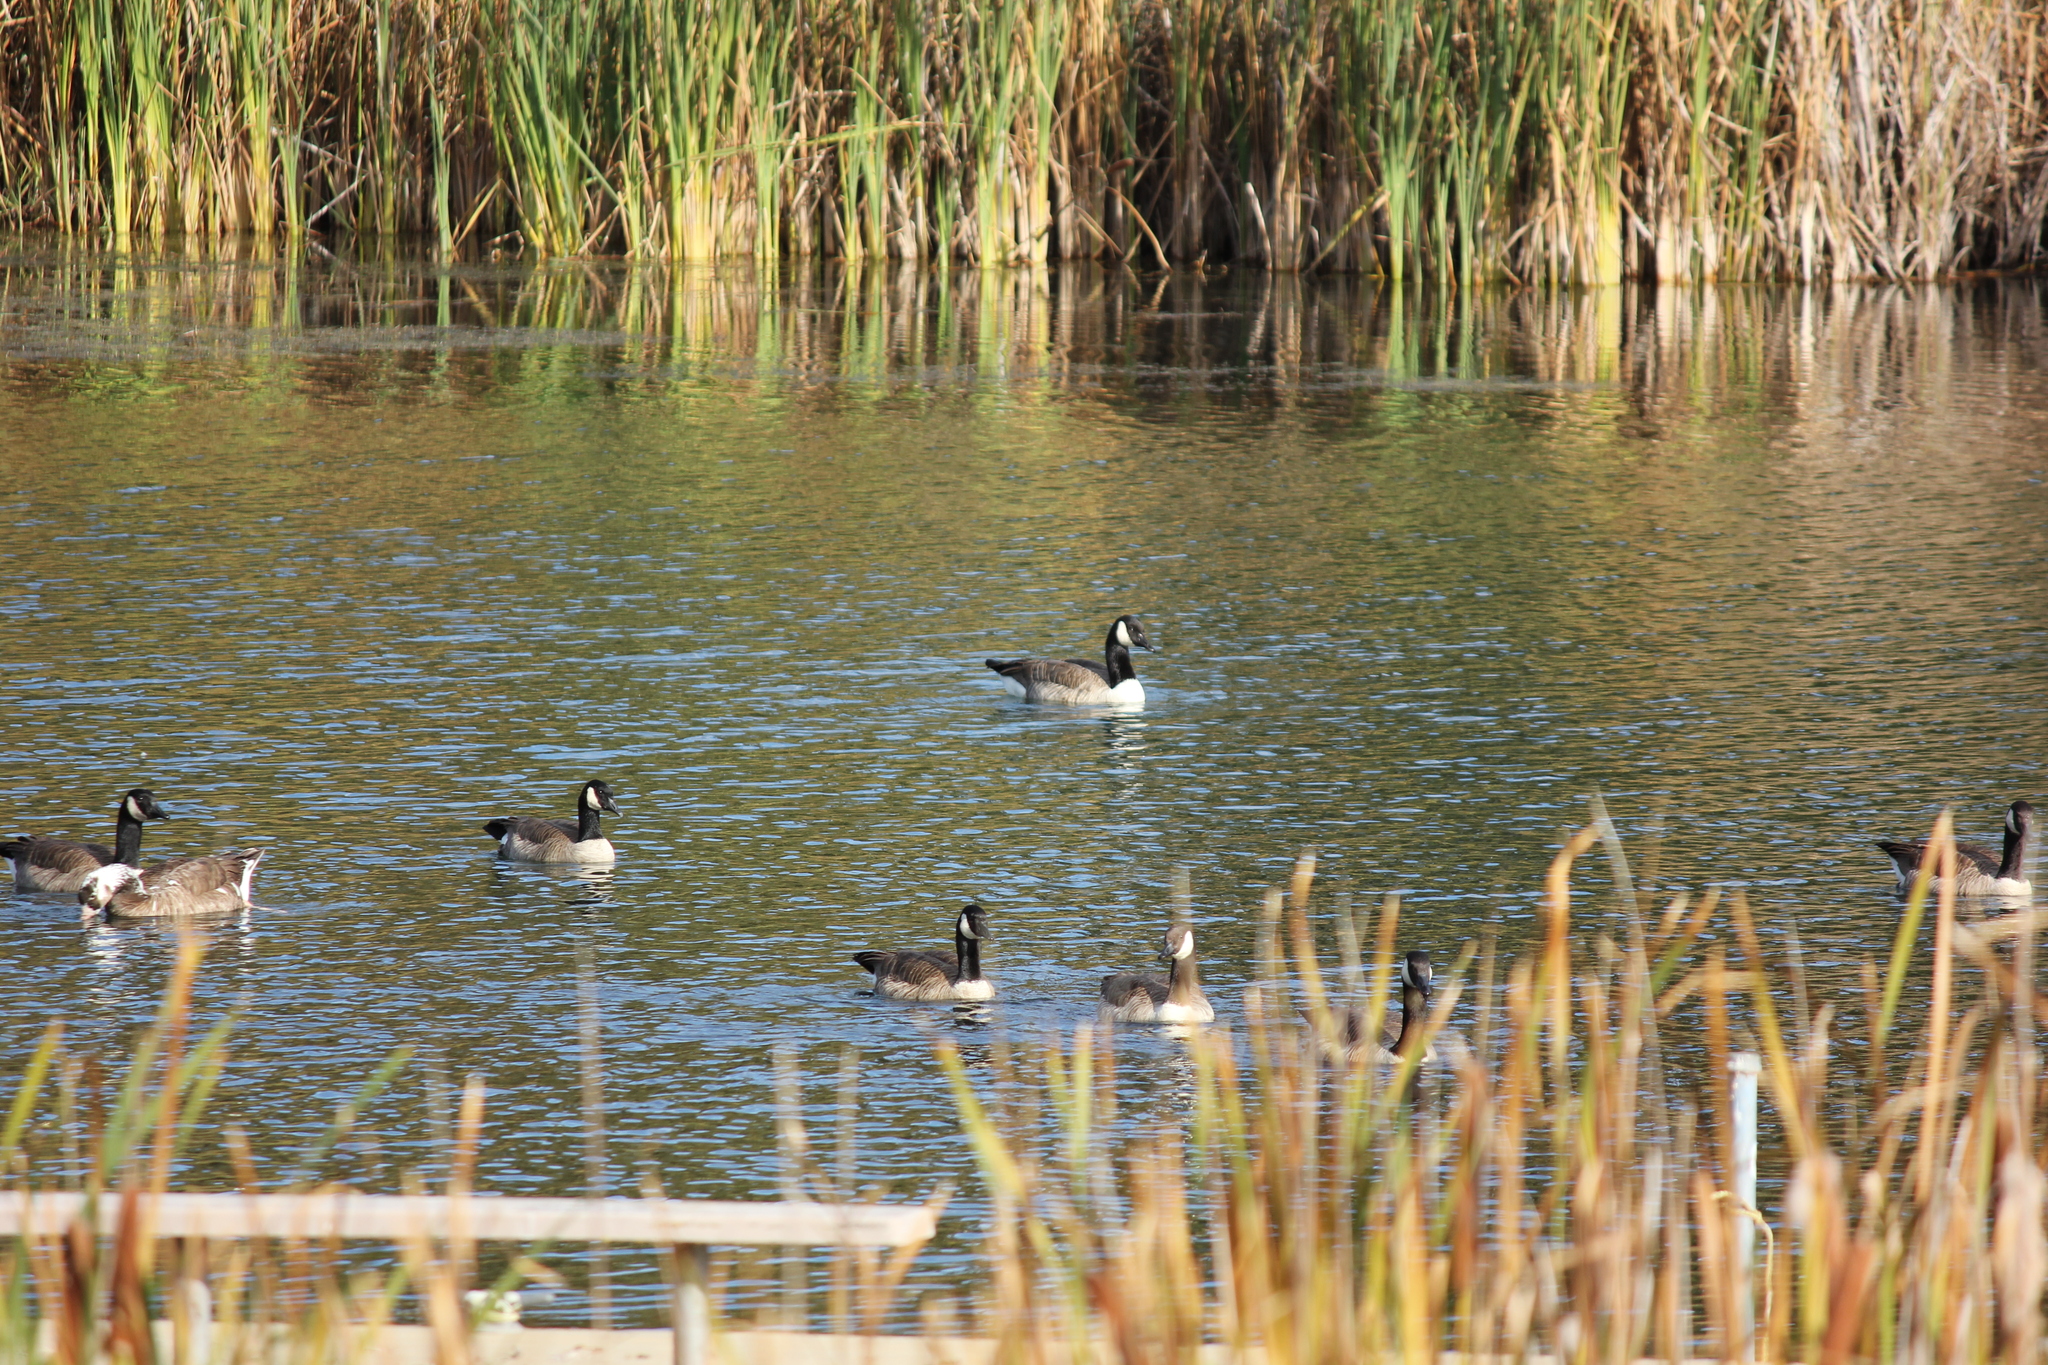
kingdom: Animalia
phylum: Chordata
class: Aves
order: Anseriformes
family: Anatidae
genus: Branta
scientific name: Branta canadensis
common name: Canada goose
